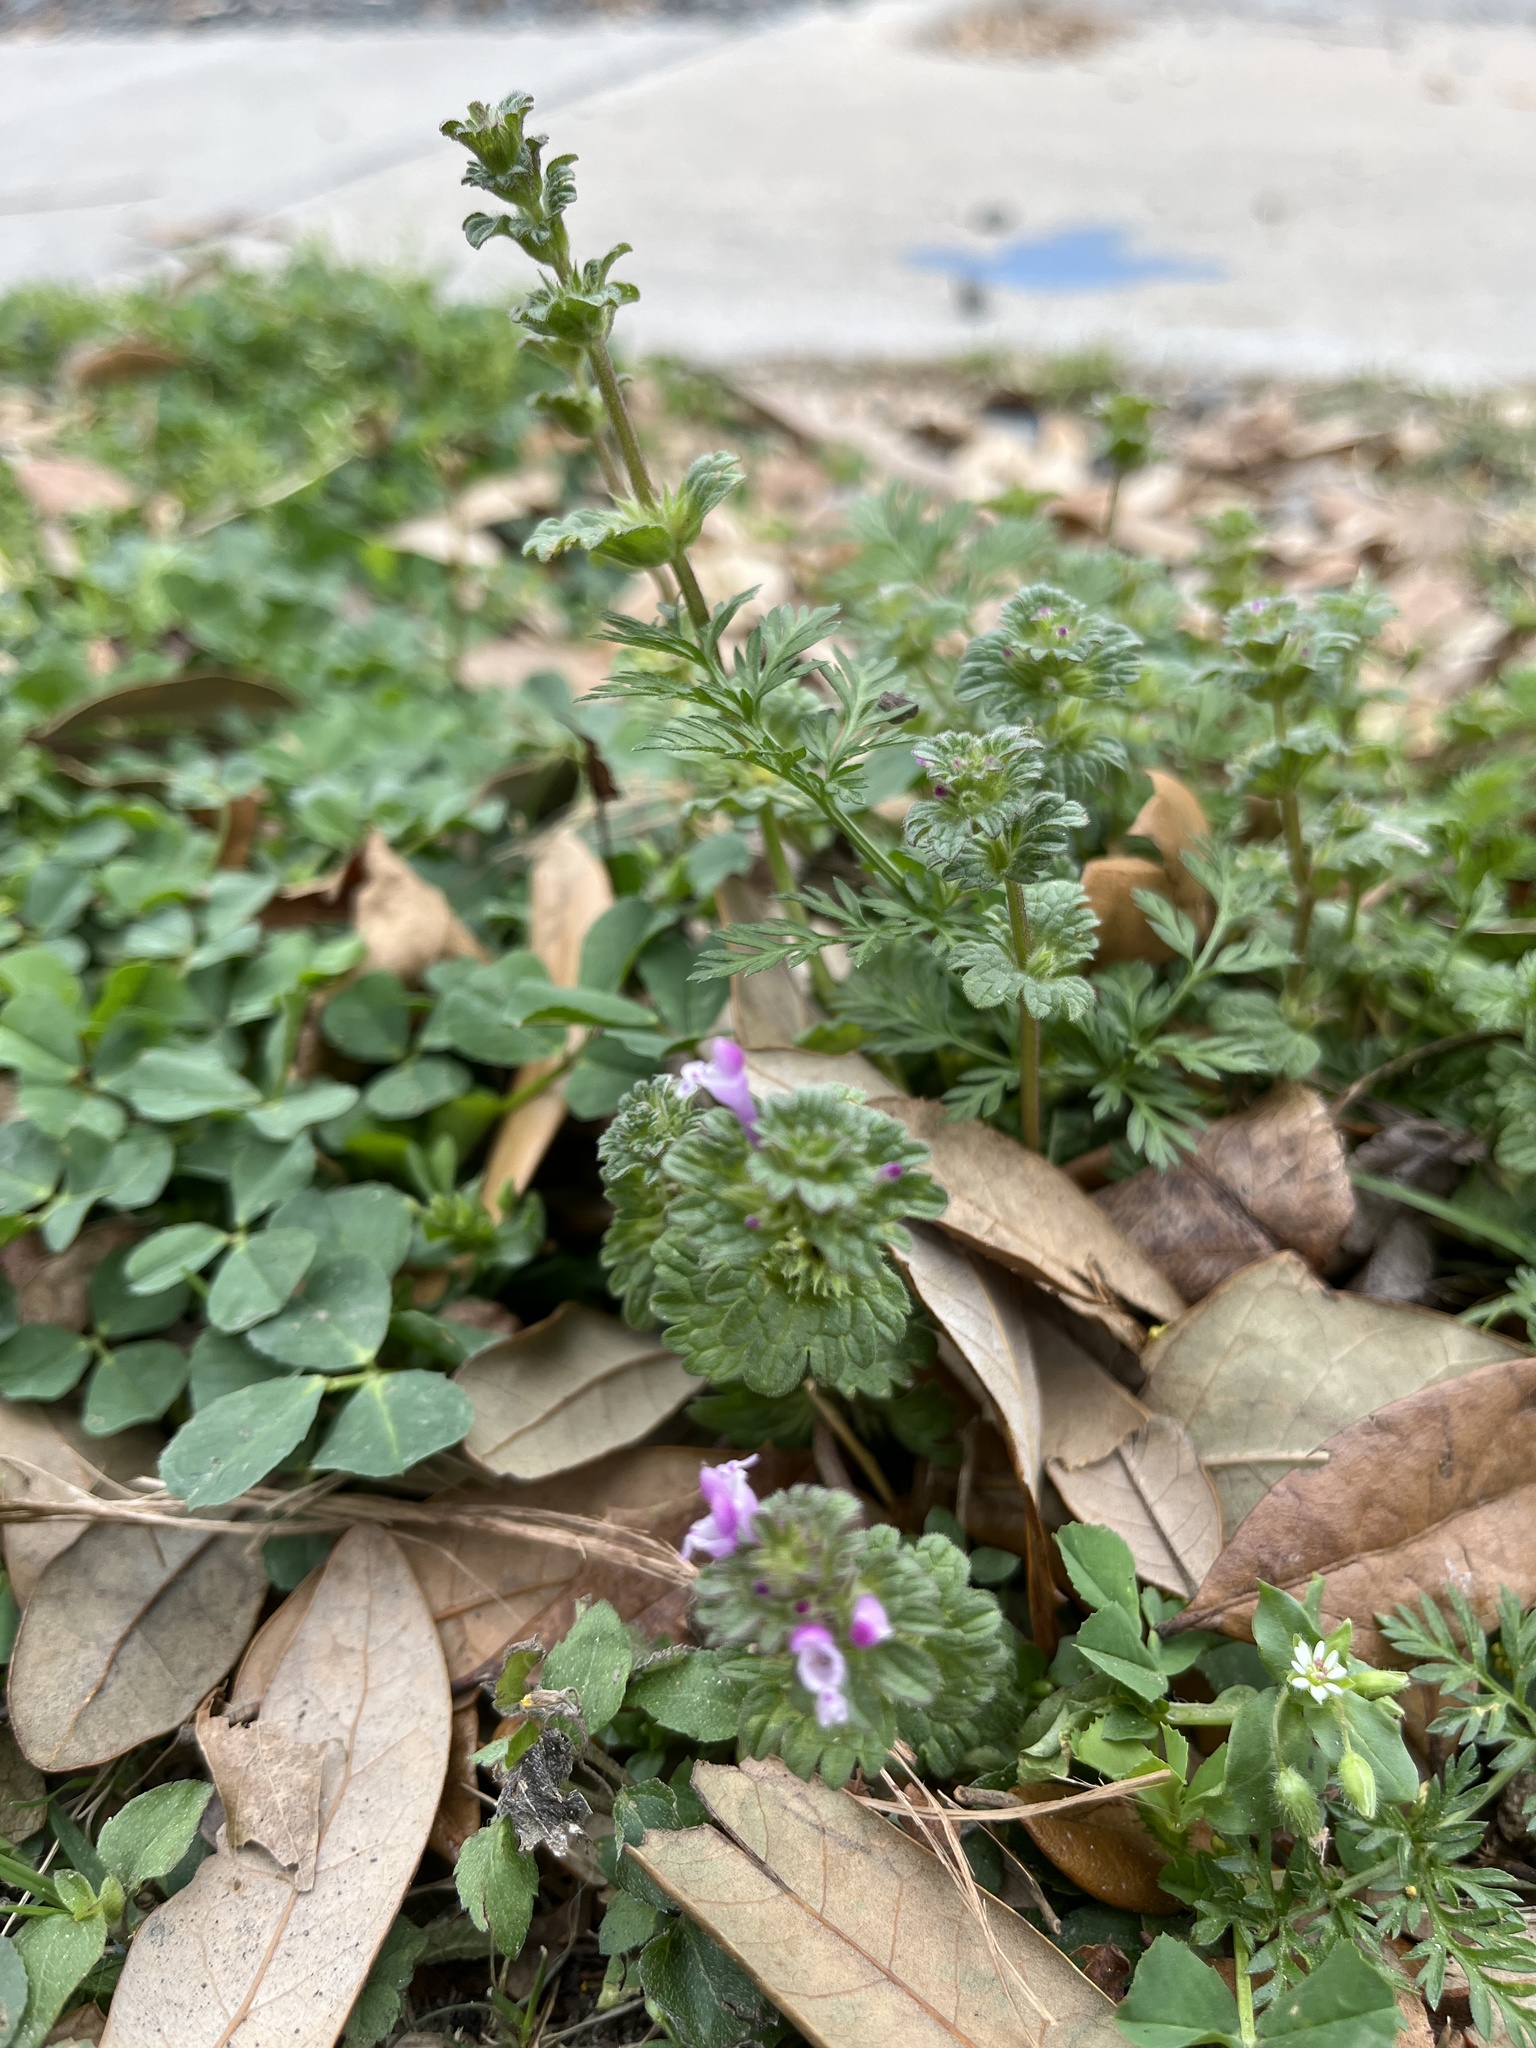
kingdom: Plantae
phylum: Tracheophyta
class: Magnoliopsida
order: Lamiales
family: Lamiaceae
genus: Lamium
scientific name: Lamium amplexicaule
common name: Henbit dead-nettle
